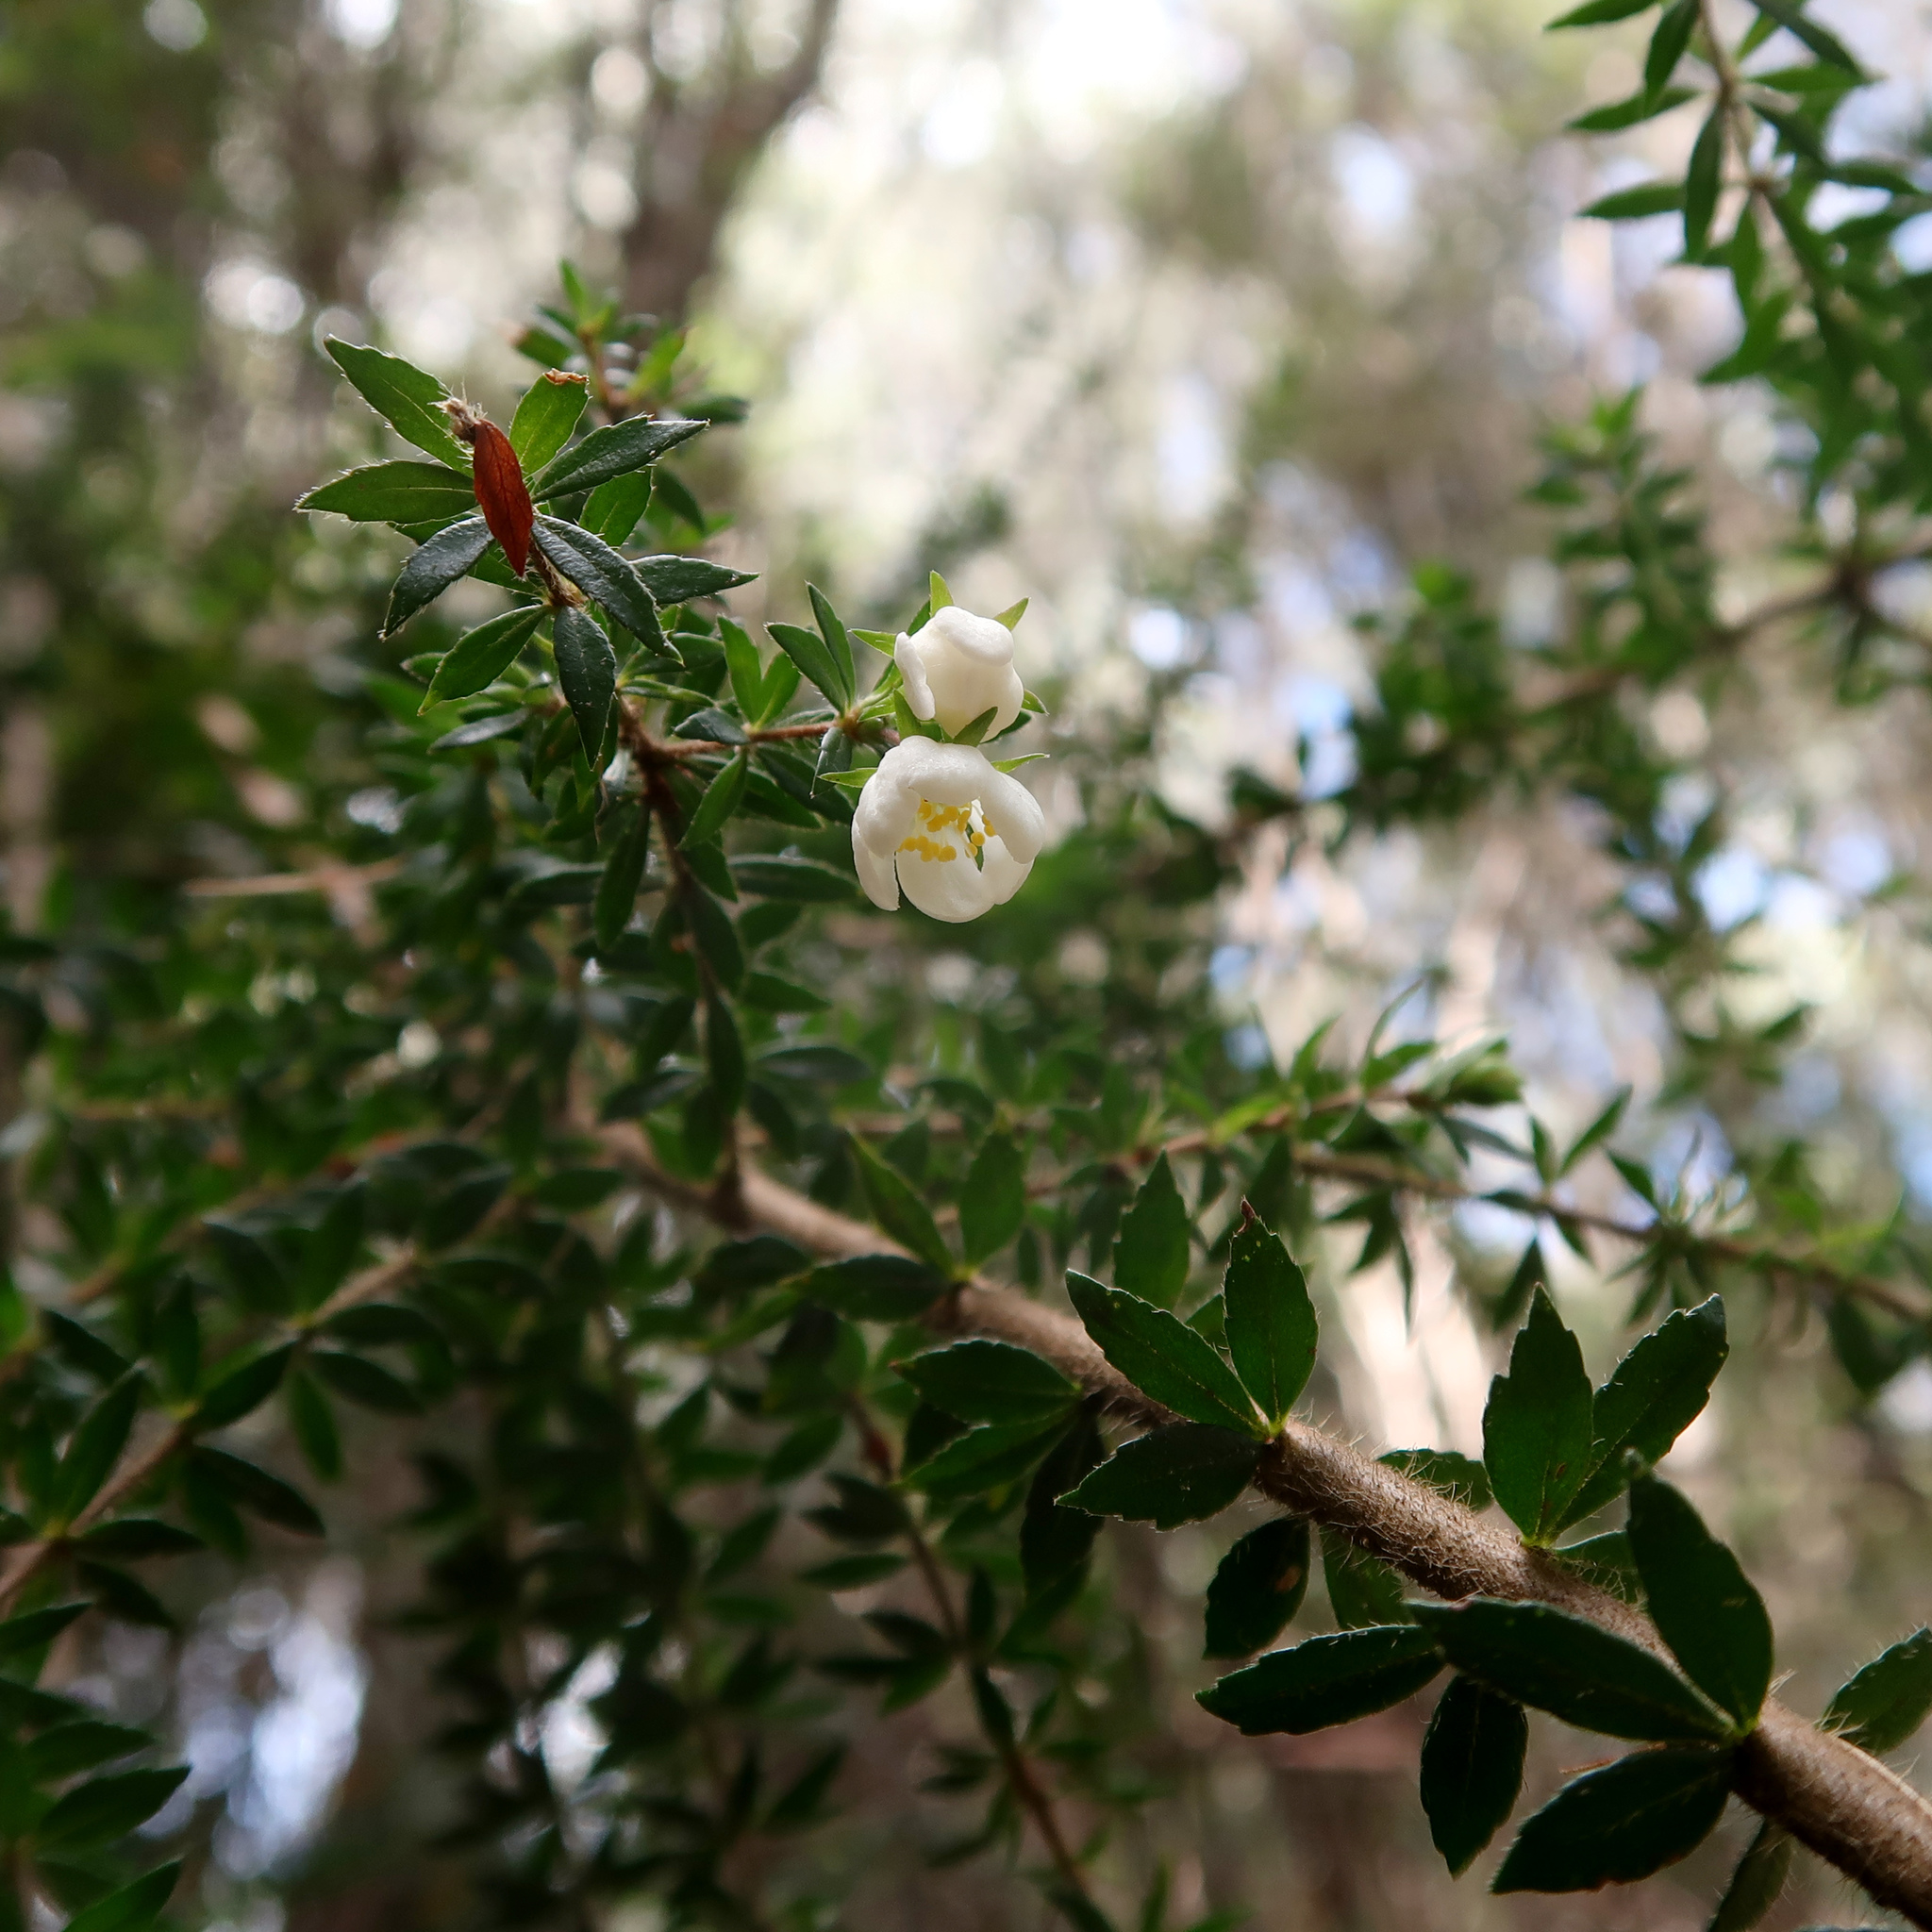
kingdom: Plantae
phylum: Tracheophyta
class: Magnoliopsida
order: Oxalidales
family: Cunoniaceae
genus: Bauera
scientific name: Bauera rubioides
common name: River-rose
